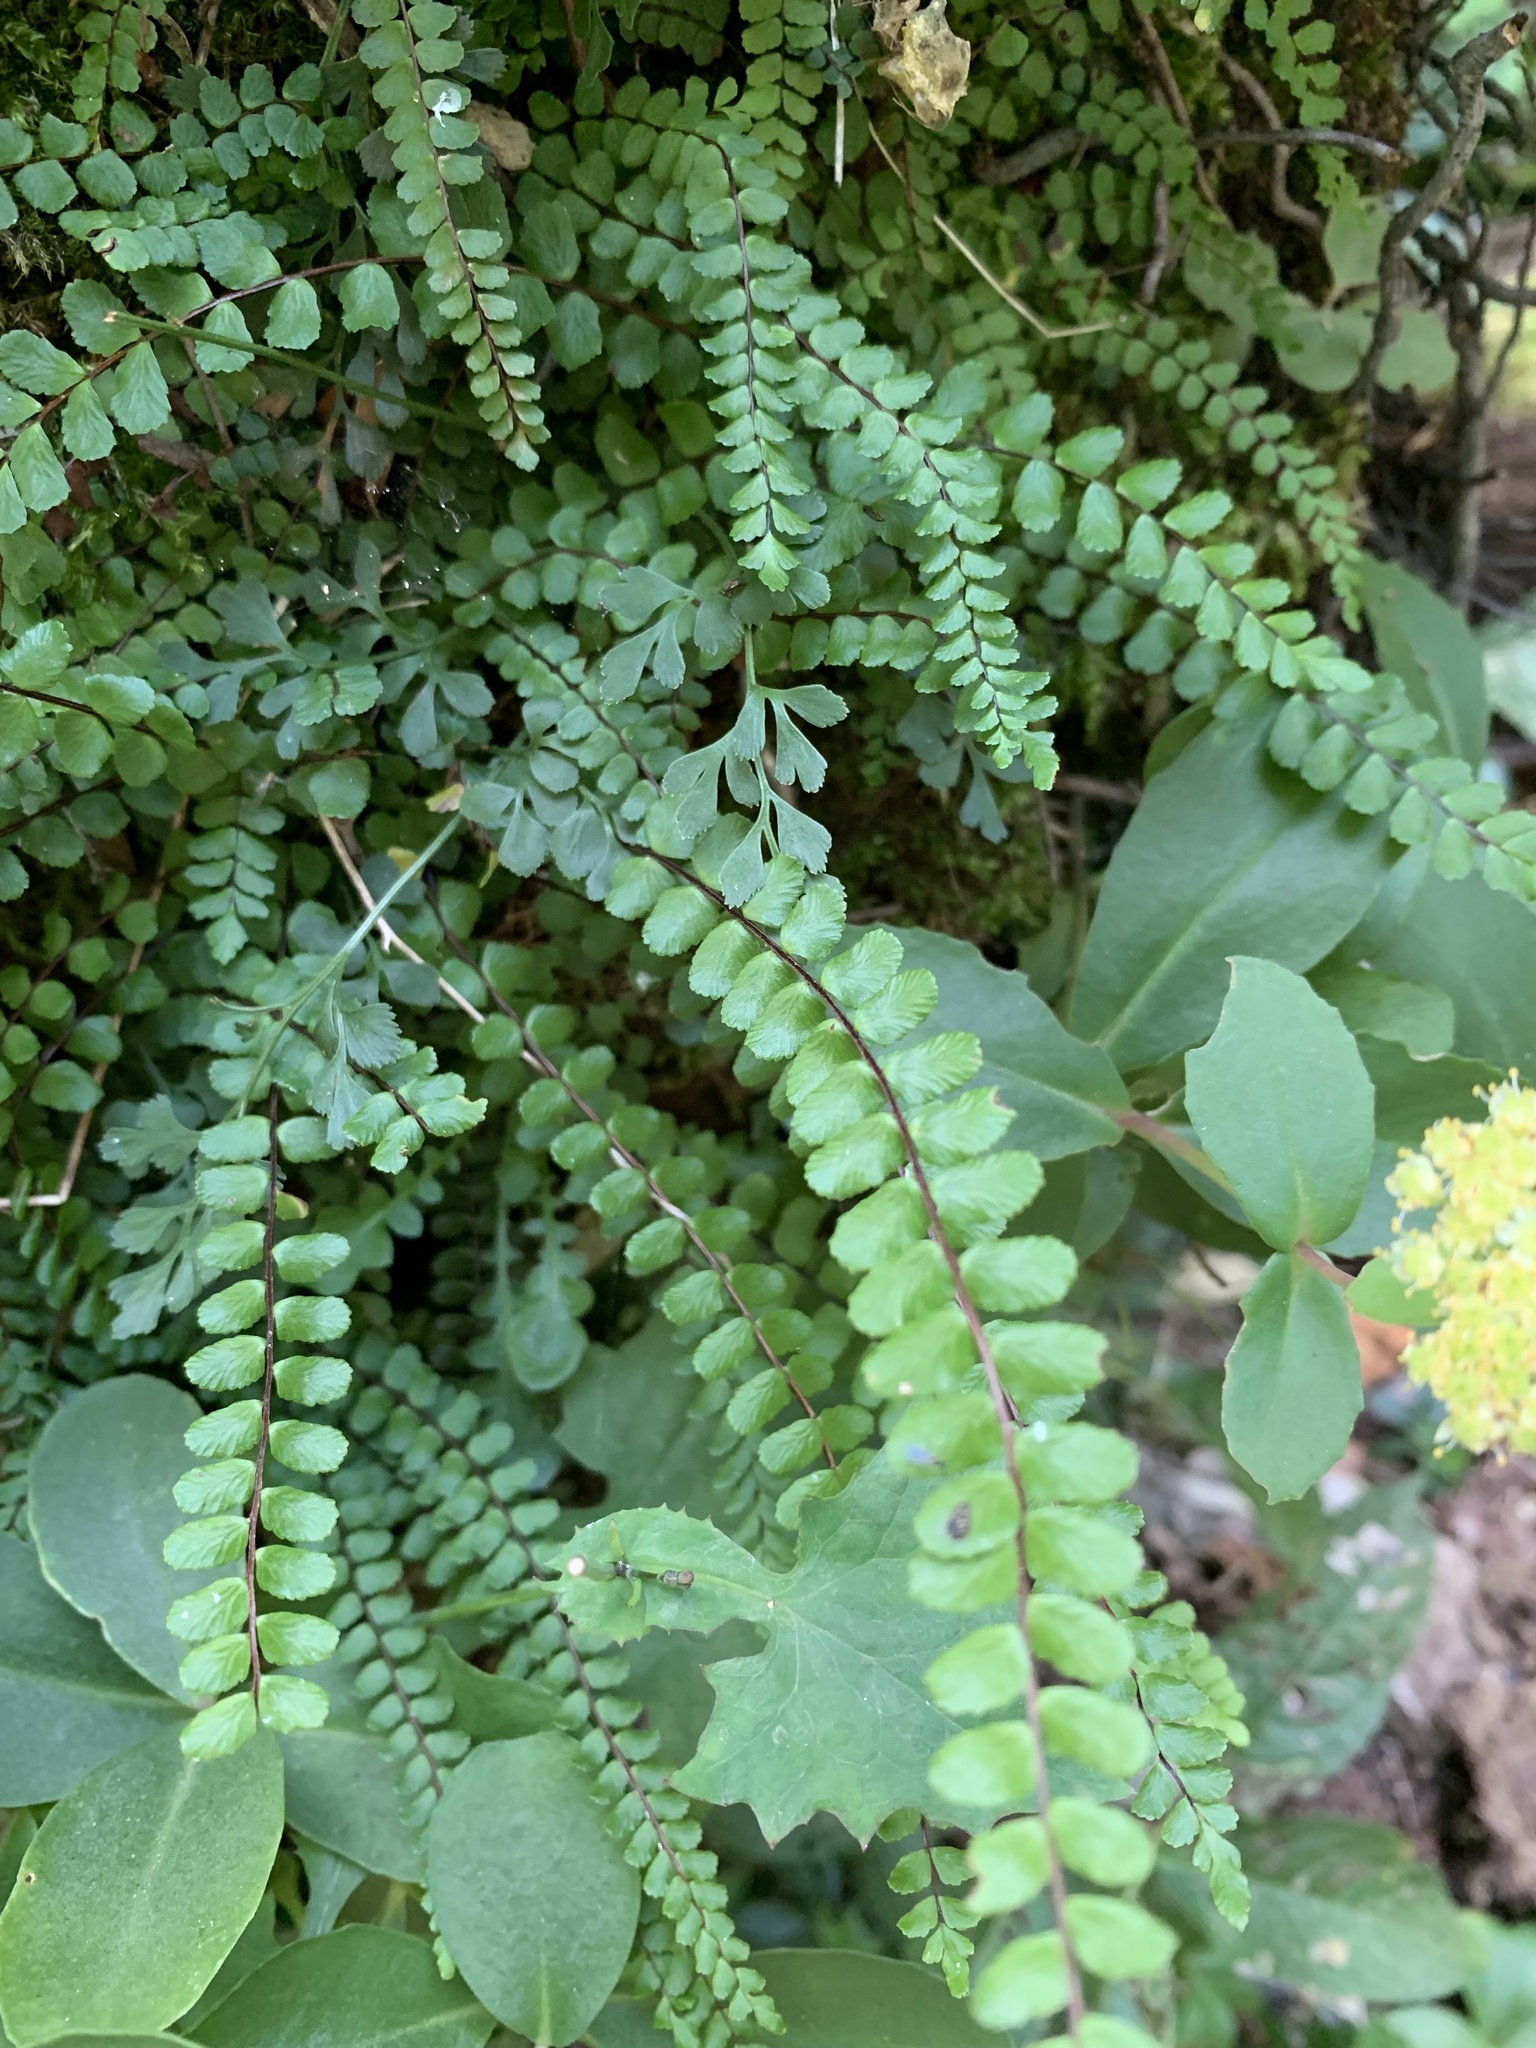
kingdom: Plantae
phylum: Tracheophyta
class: Polypodiopsida
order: Polypodiales
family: Aspleniaceae
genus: Asplenium
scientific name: Asplenium trichomanes
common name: Maidenhair spleenwort
